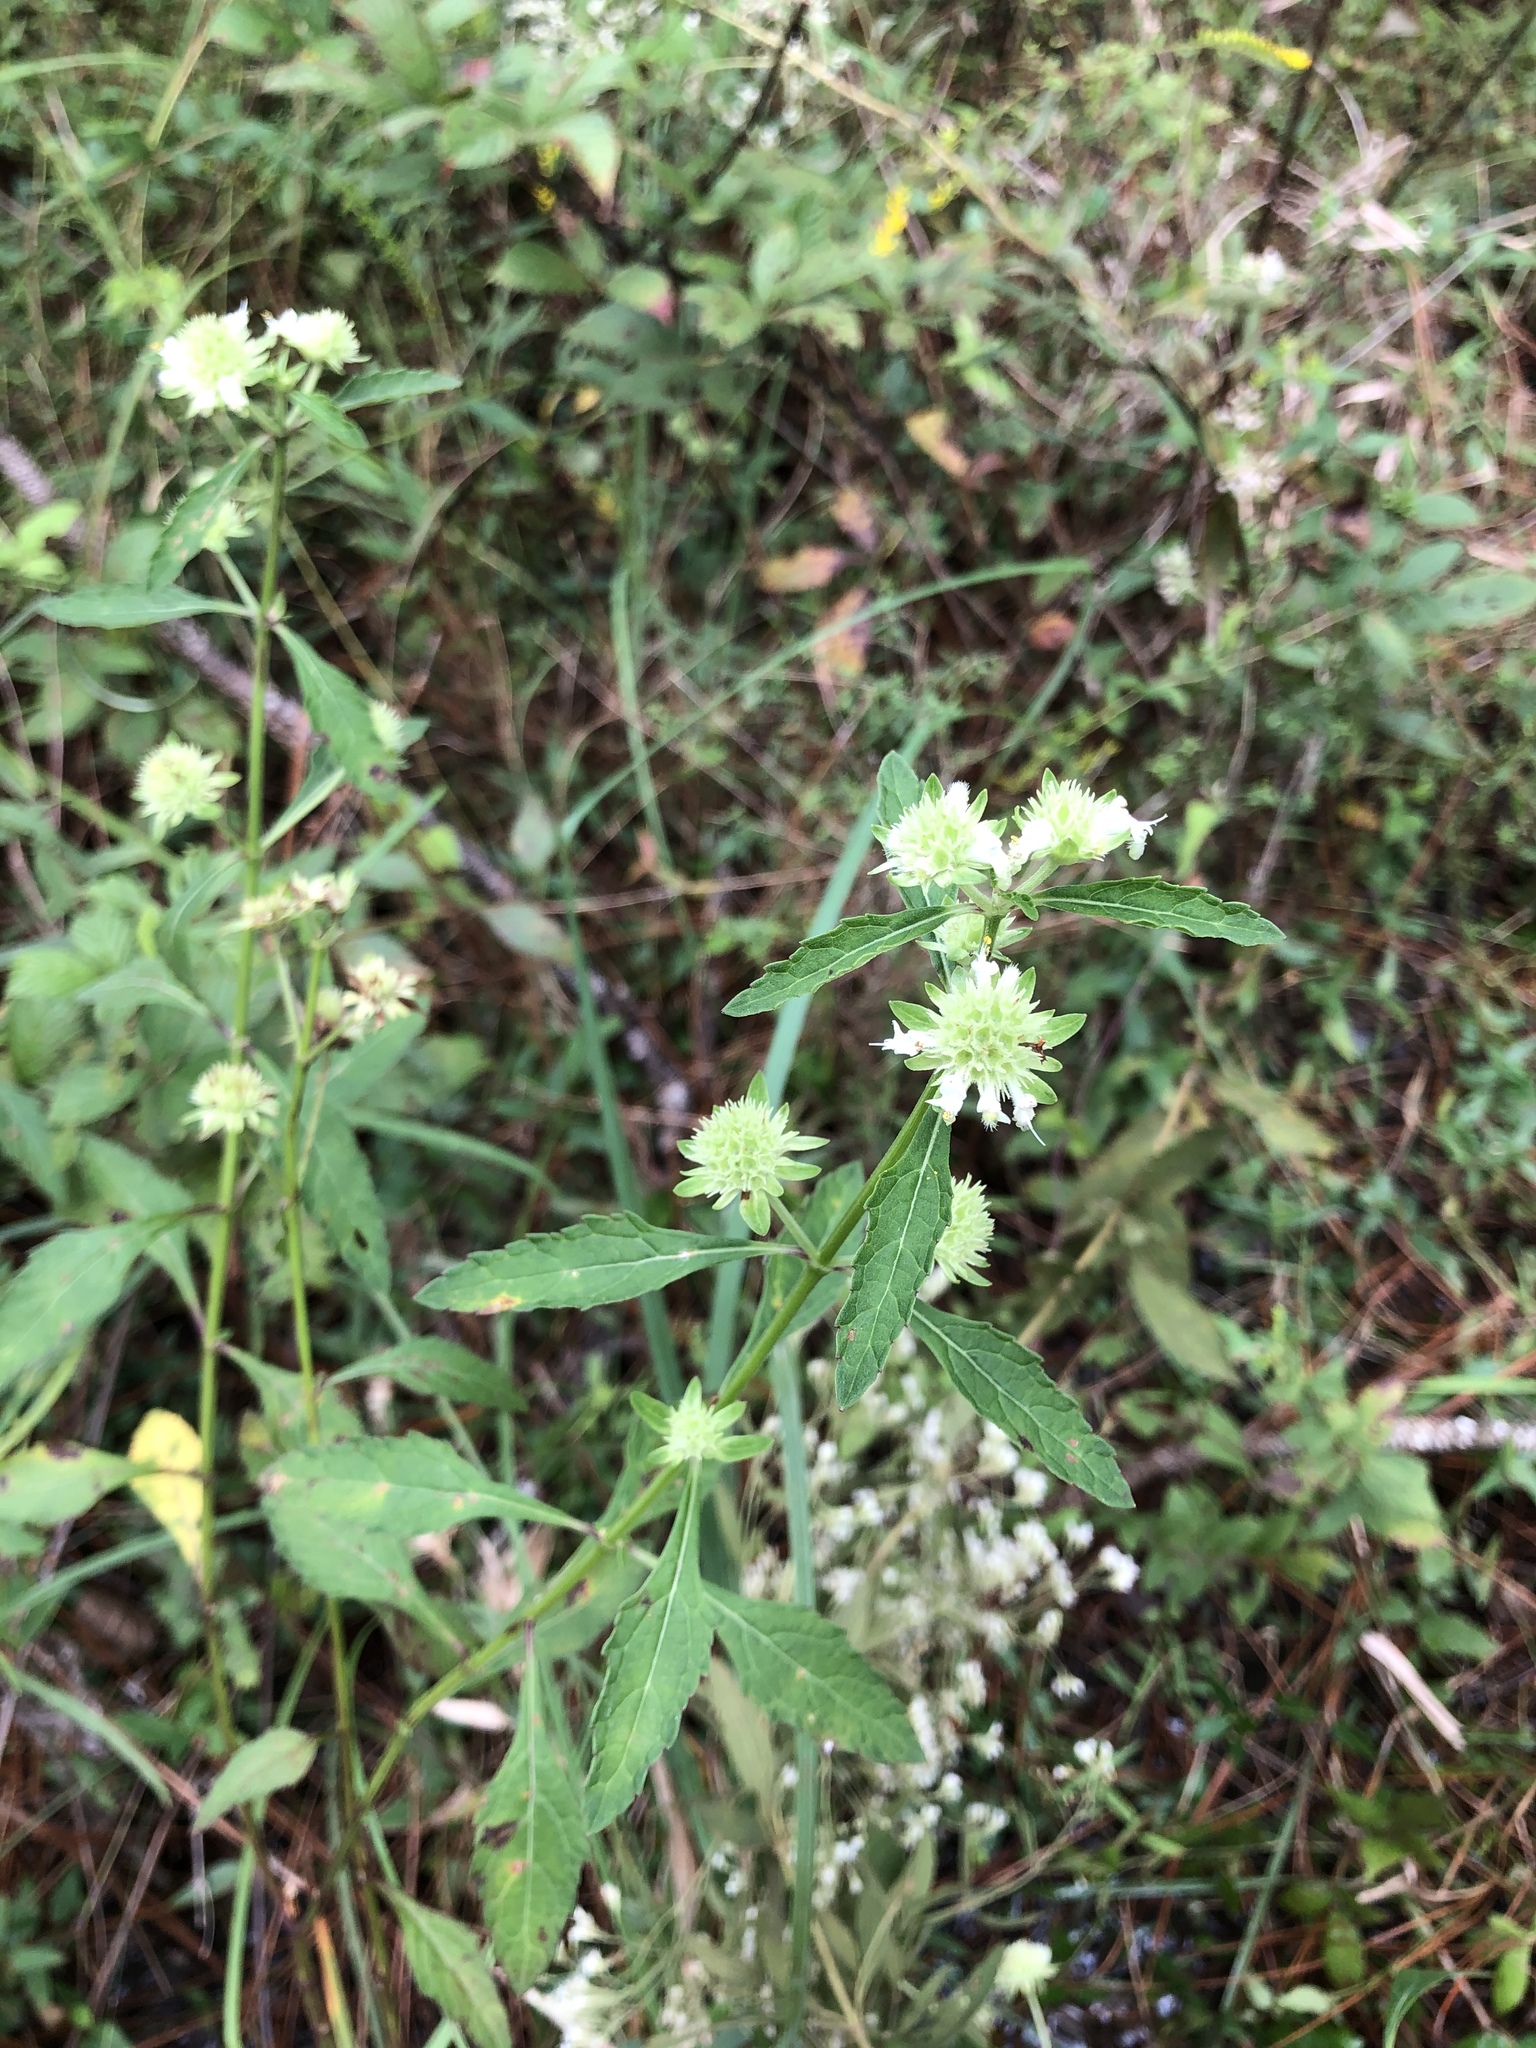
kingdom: Plantae
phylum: Tracheophyta
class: Magnoliopsida
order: Lamiales
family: Lamiaceae
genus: Hyptis
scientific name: Hyptis alata
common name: Cluster bush-mint
